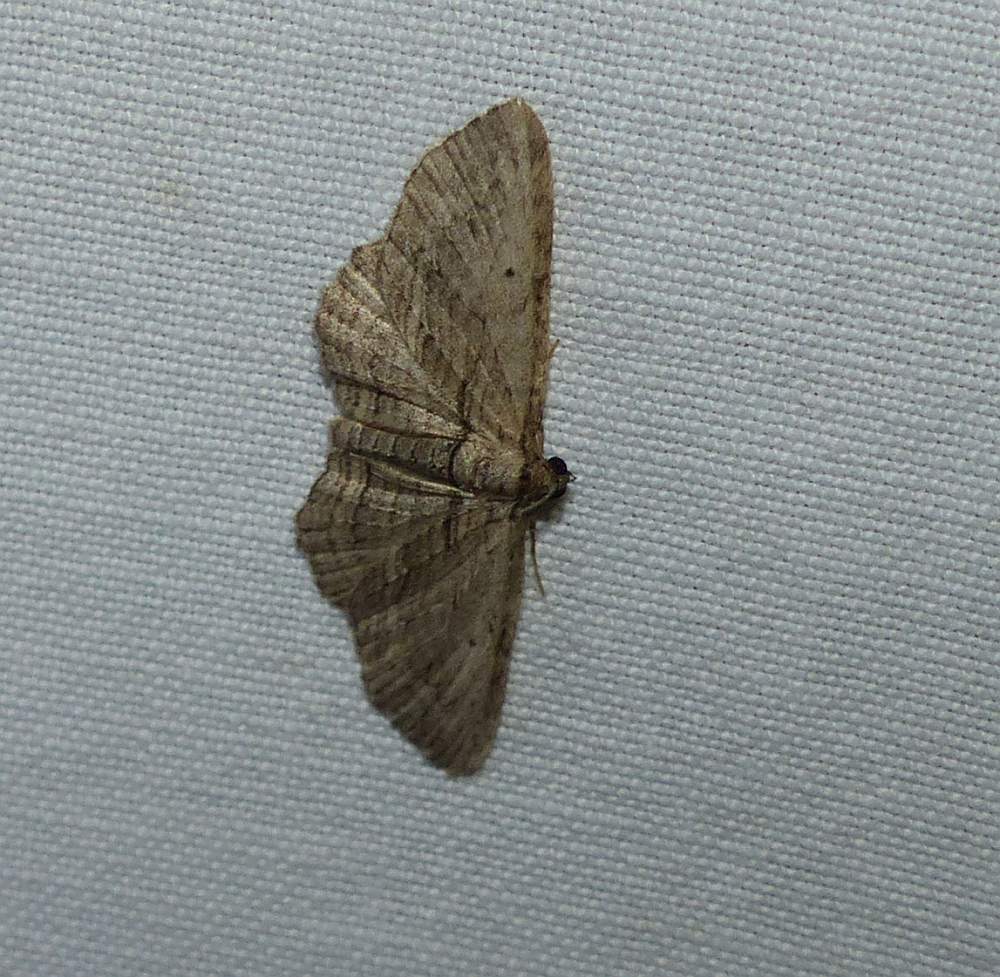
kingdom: Animalia
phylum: Arthropoda
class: Insecta
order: Lepidoptera
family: Geometridae
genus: Horisme
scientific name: Horisme intestinata
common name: Brown bark carpet
